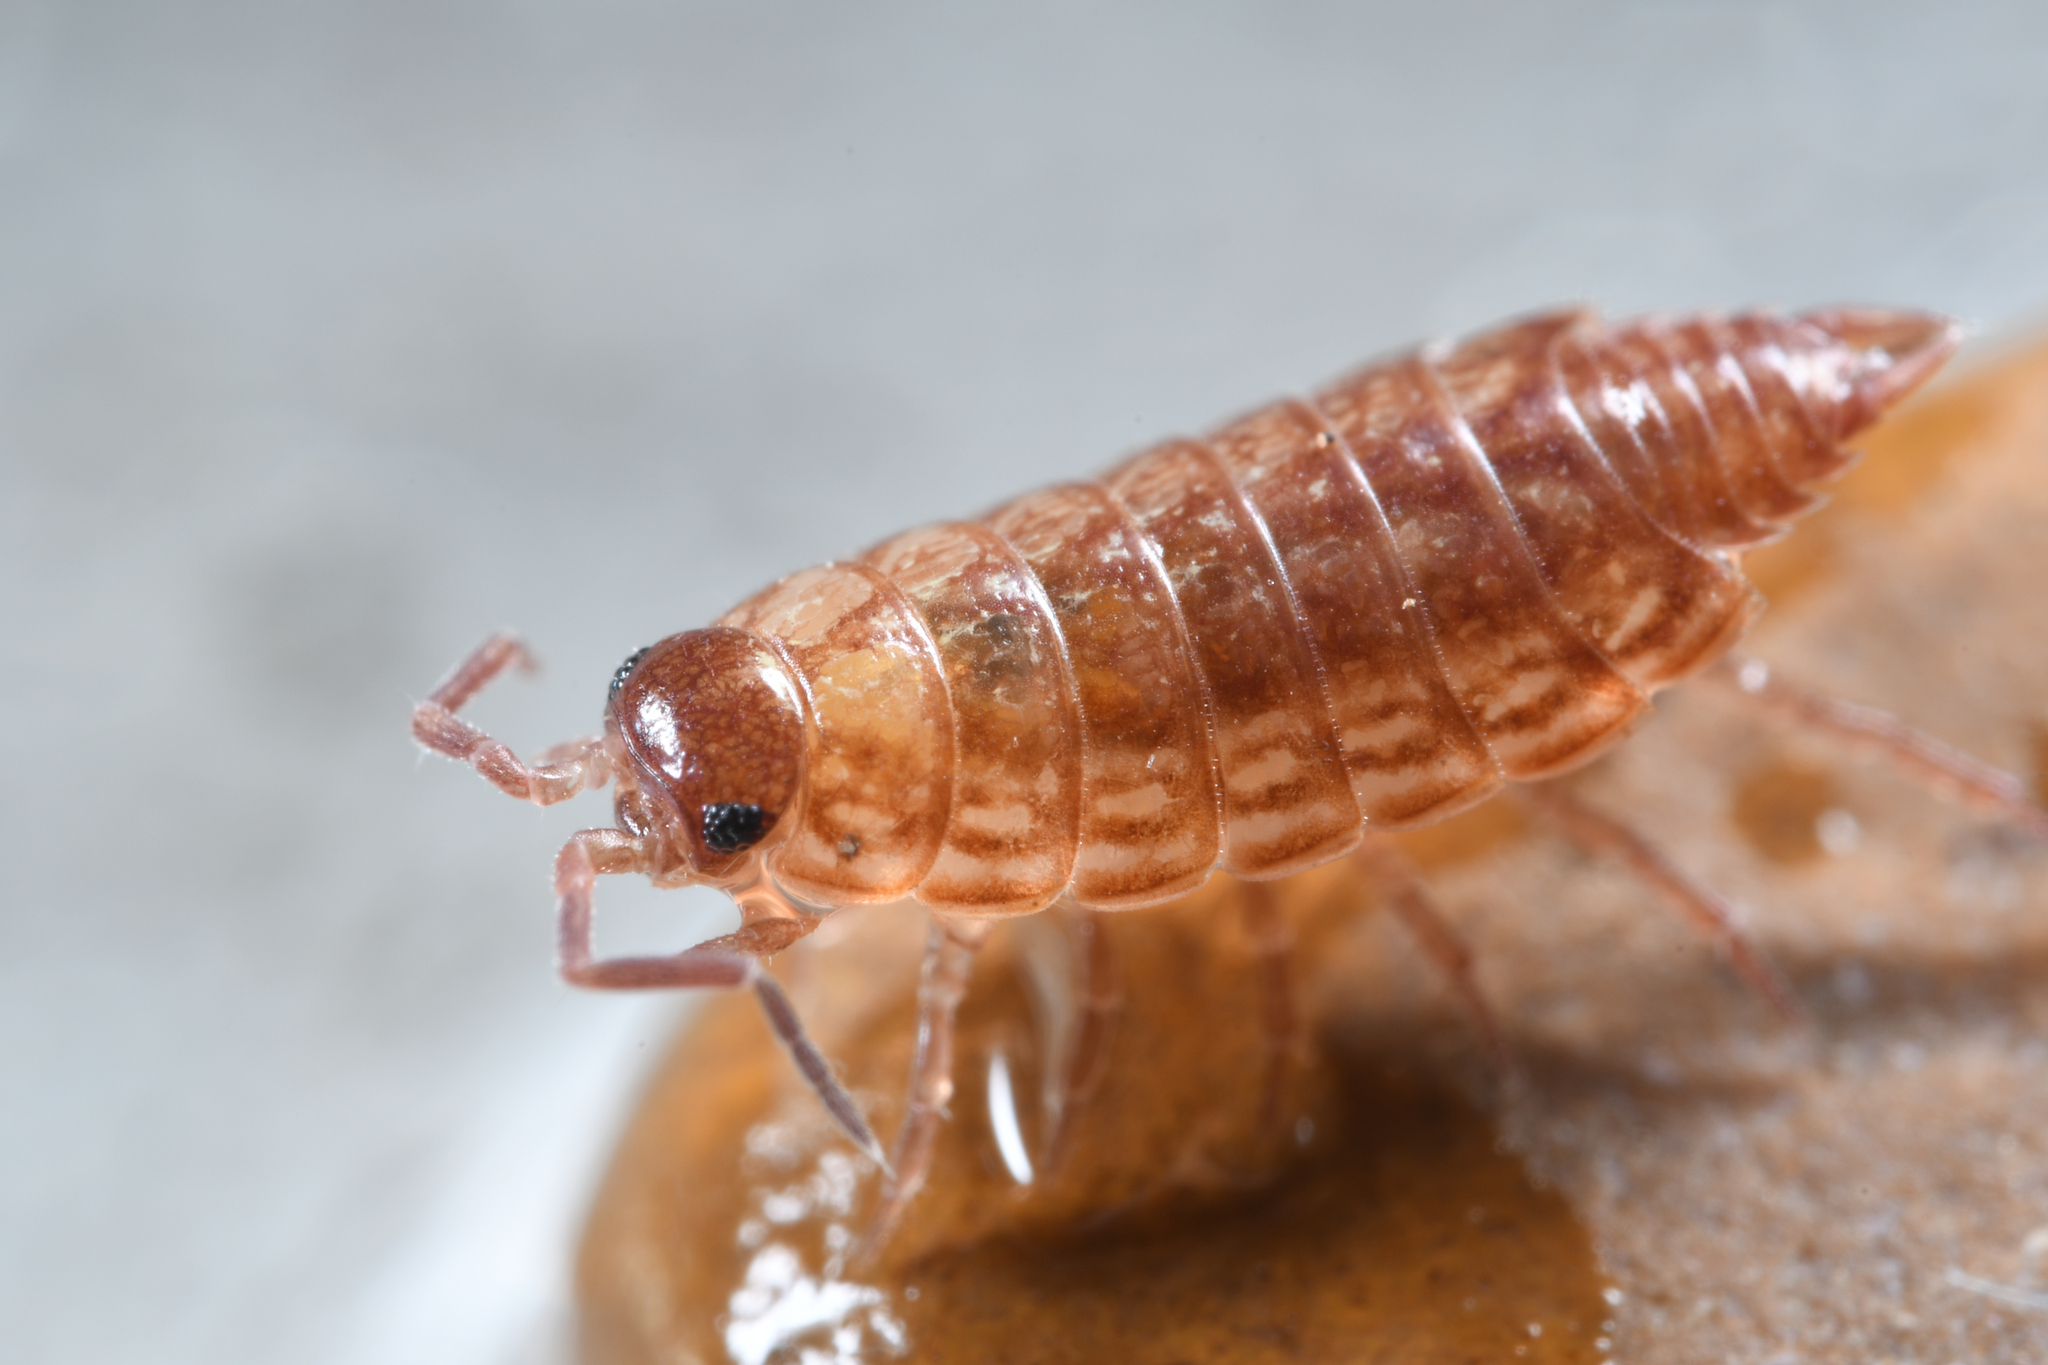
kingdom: Animalia
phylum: Arthropoda
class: Malacostraca
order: Isopoda
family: Philosciidae
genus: Philoscia
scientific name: Philoscia muscorum
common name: Common striped woodlouse
